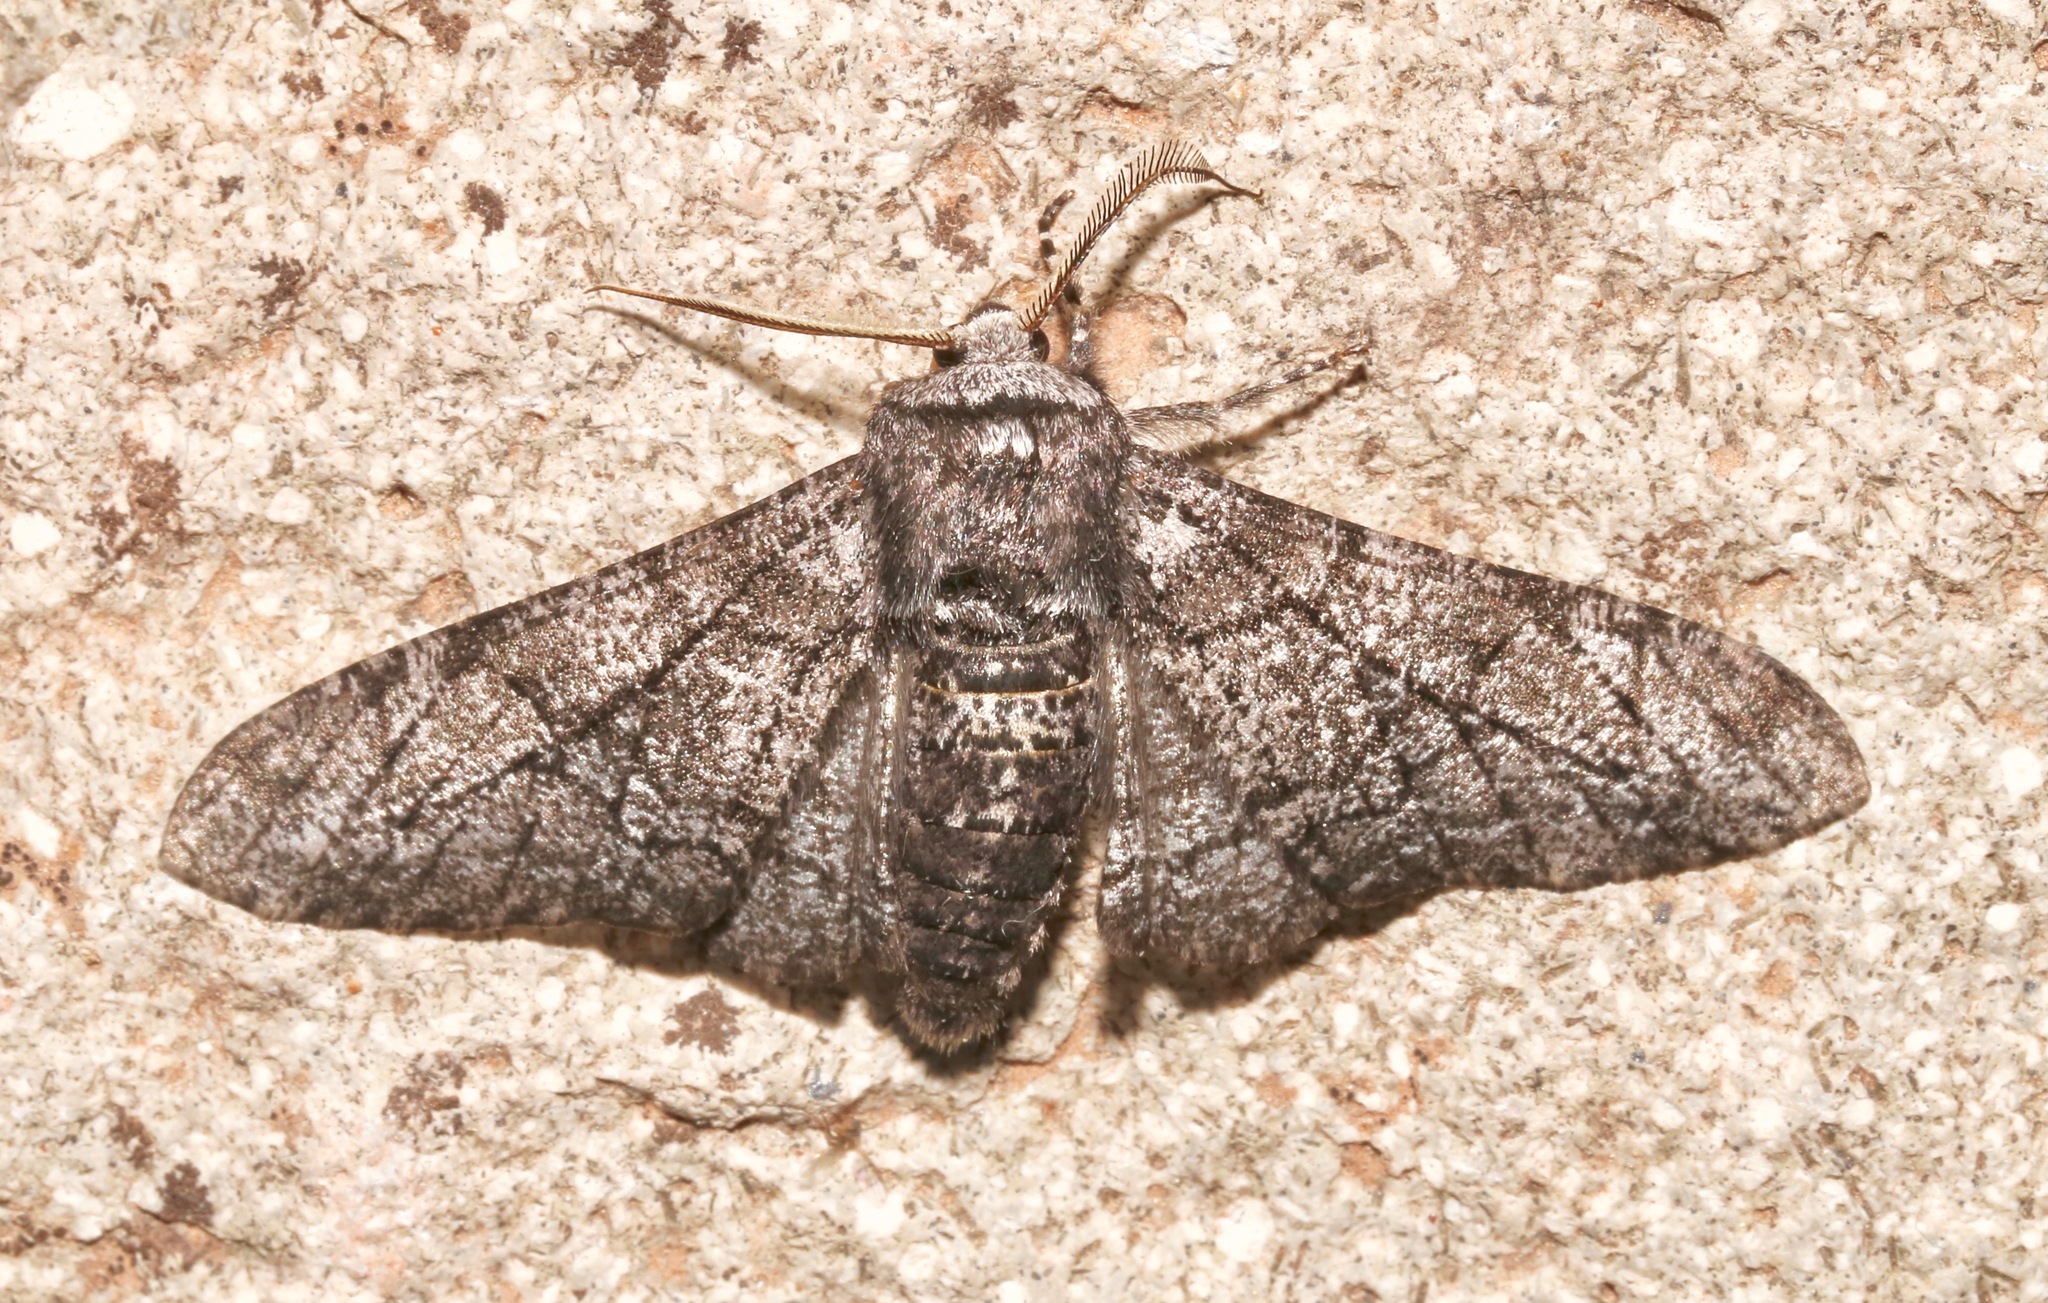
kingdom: Animalia
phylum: Arthropoda
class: Insecta
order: Lepidoptera
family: Geometridae
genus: Biston
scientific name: Biston betularia
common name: Peppered moth
